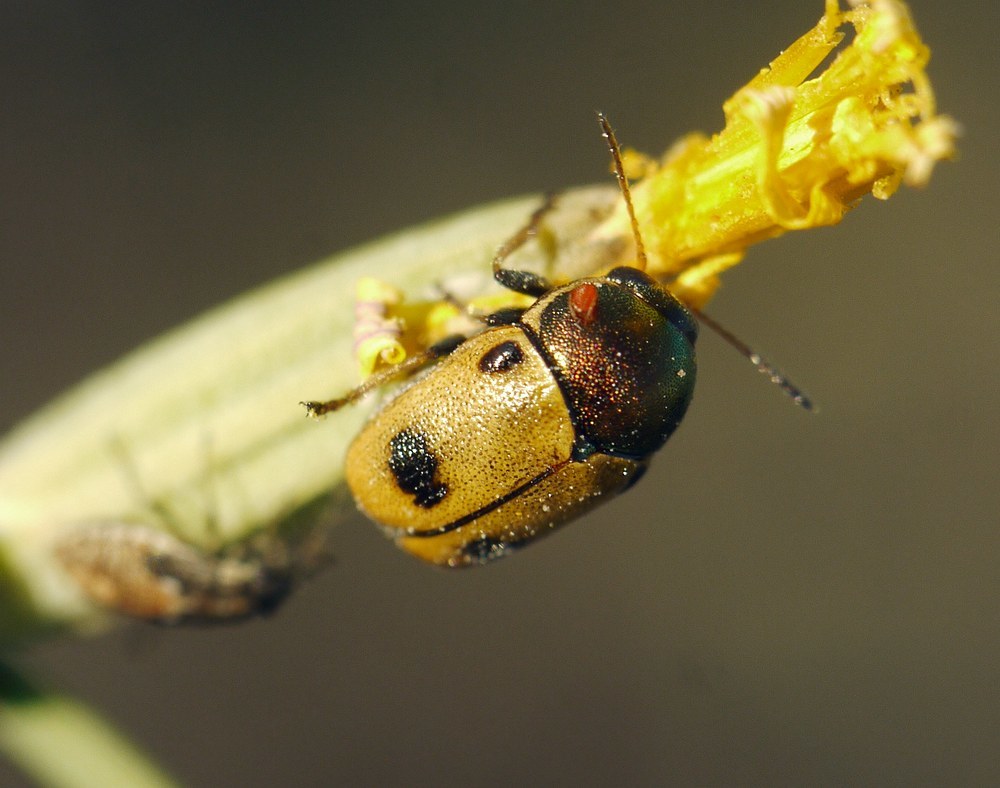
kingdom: Animalia
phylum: Arthropoda
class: Insecta
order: Coleoptera
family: Chrysomelidae
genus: Cryptocephalus
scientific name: Cryptocephalus laetus
